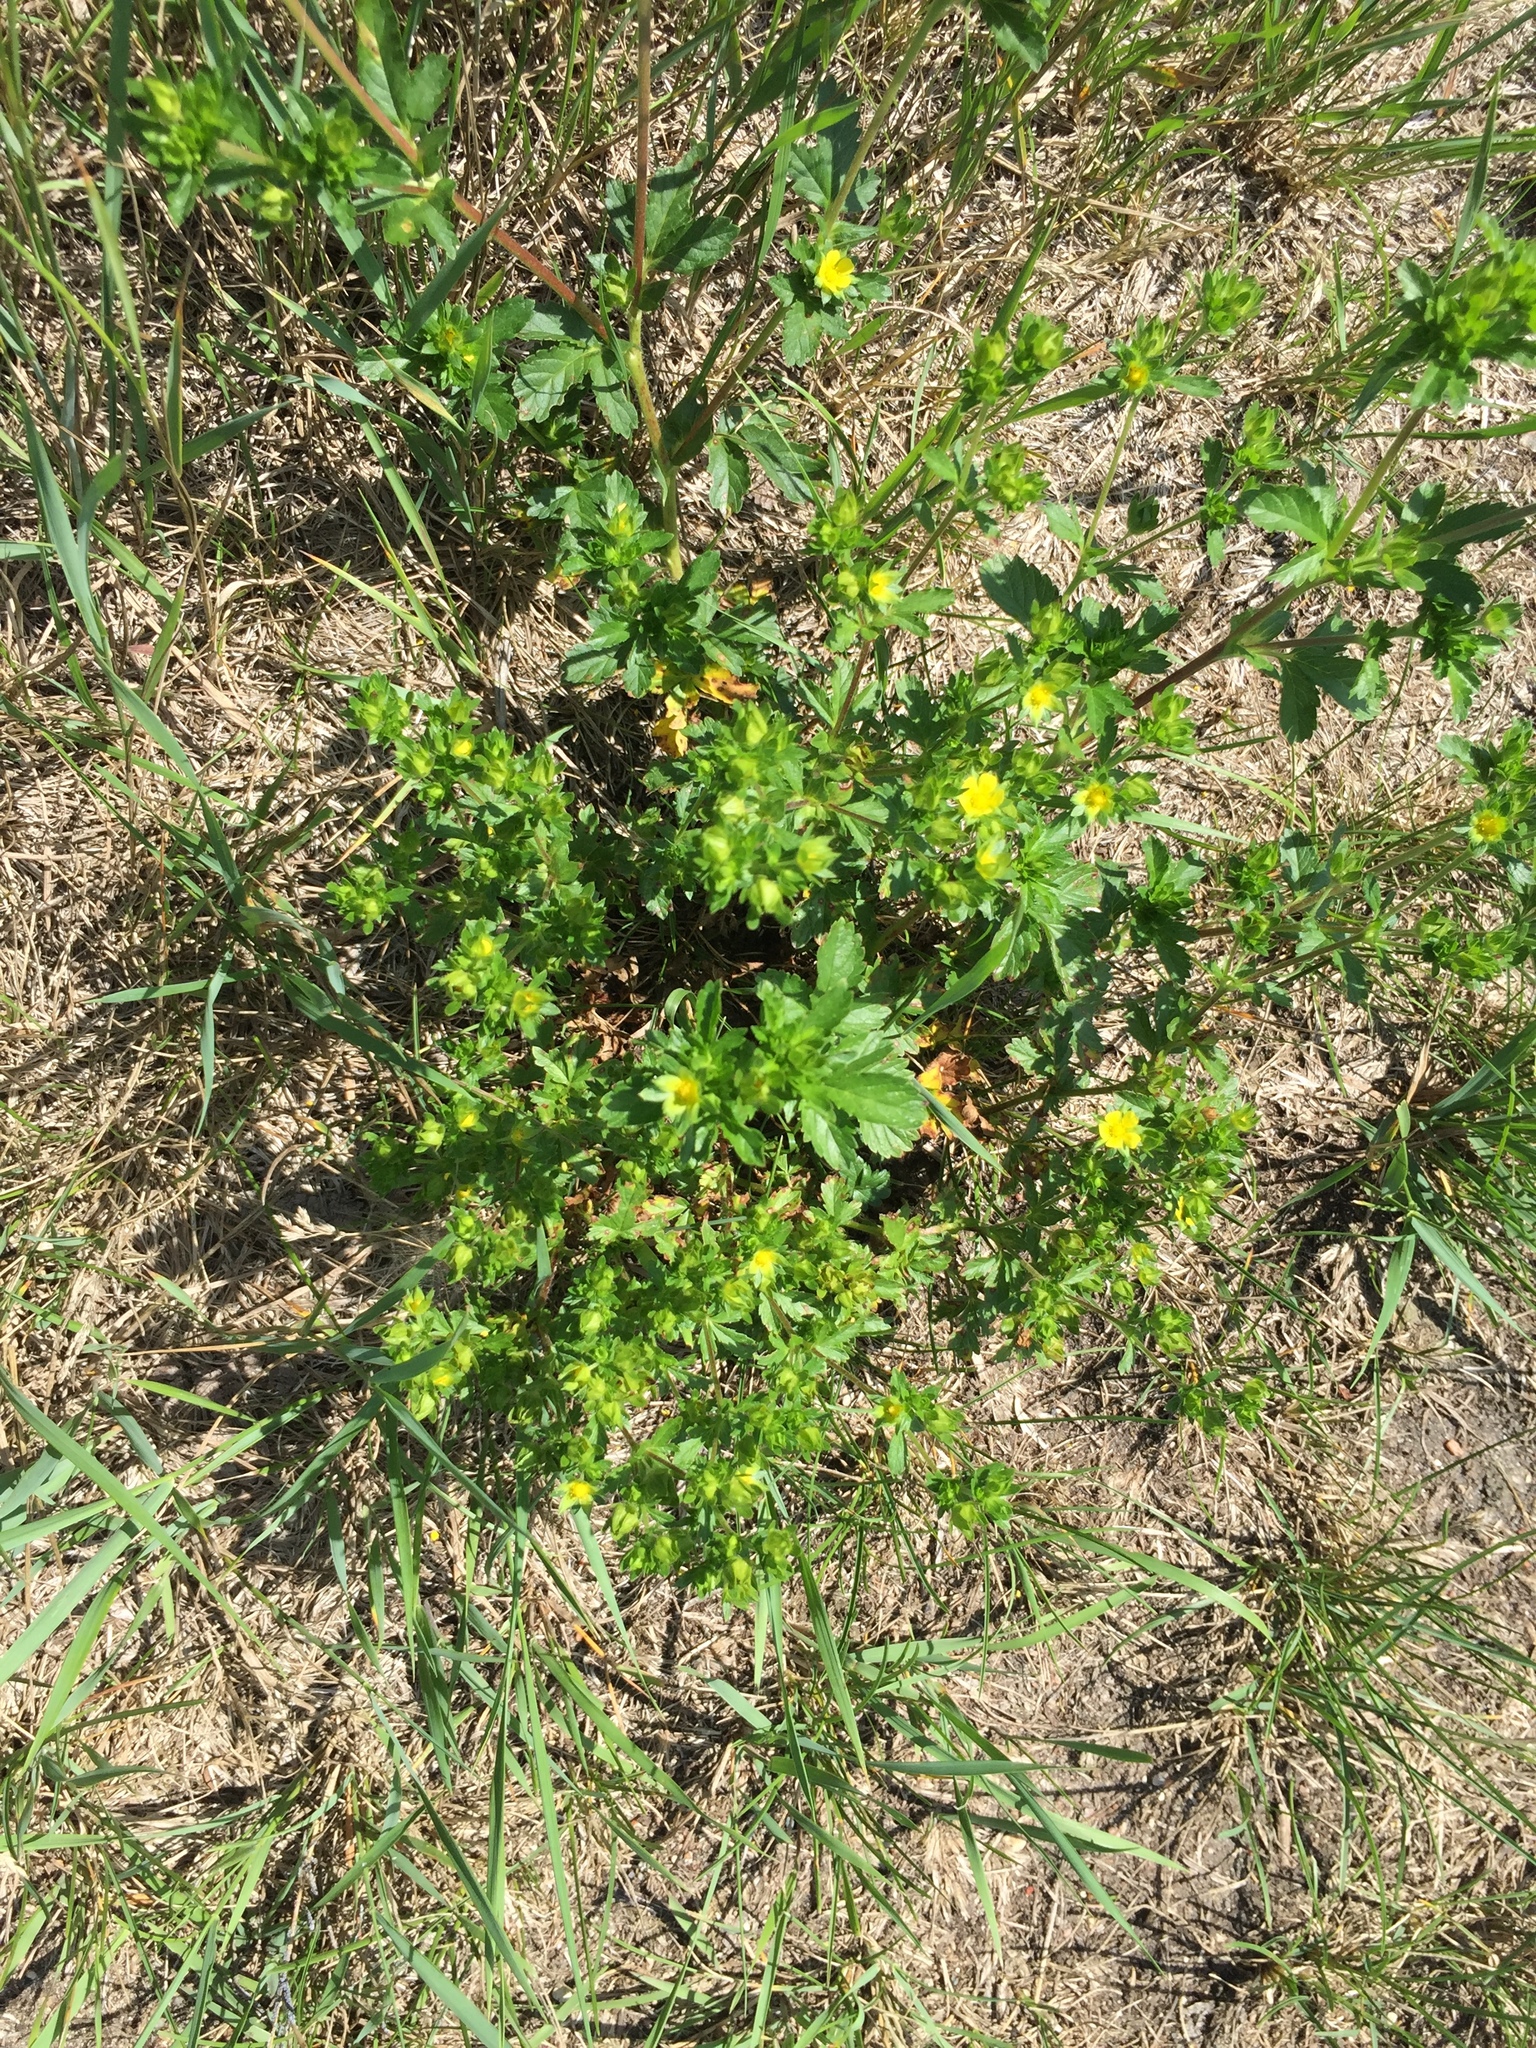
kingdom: Plantae
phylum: Tracheophyta
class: Magnoliopsida
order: Rosales
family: Rosaceae
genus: Potentilla
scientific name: Potentilla norvegica
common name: Ternate-leaved cinquefoil
